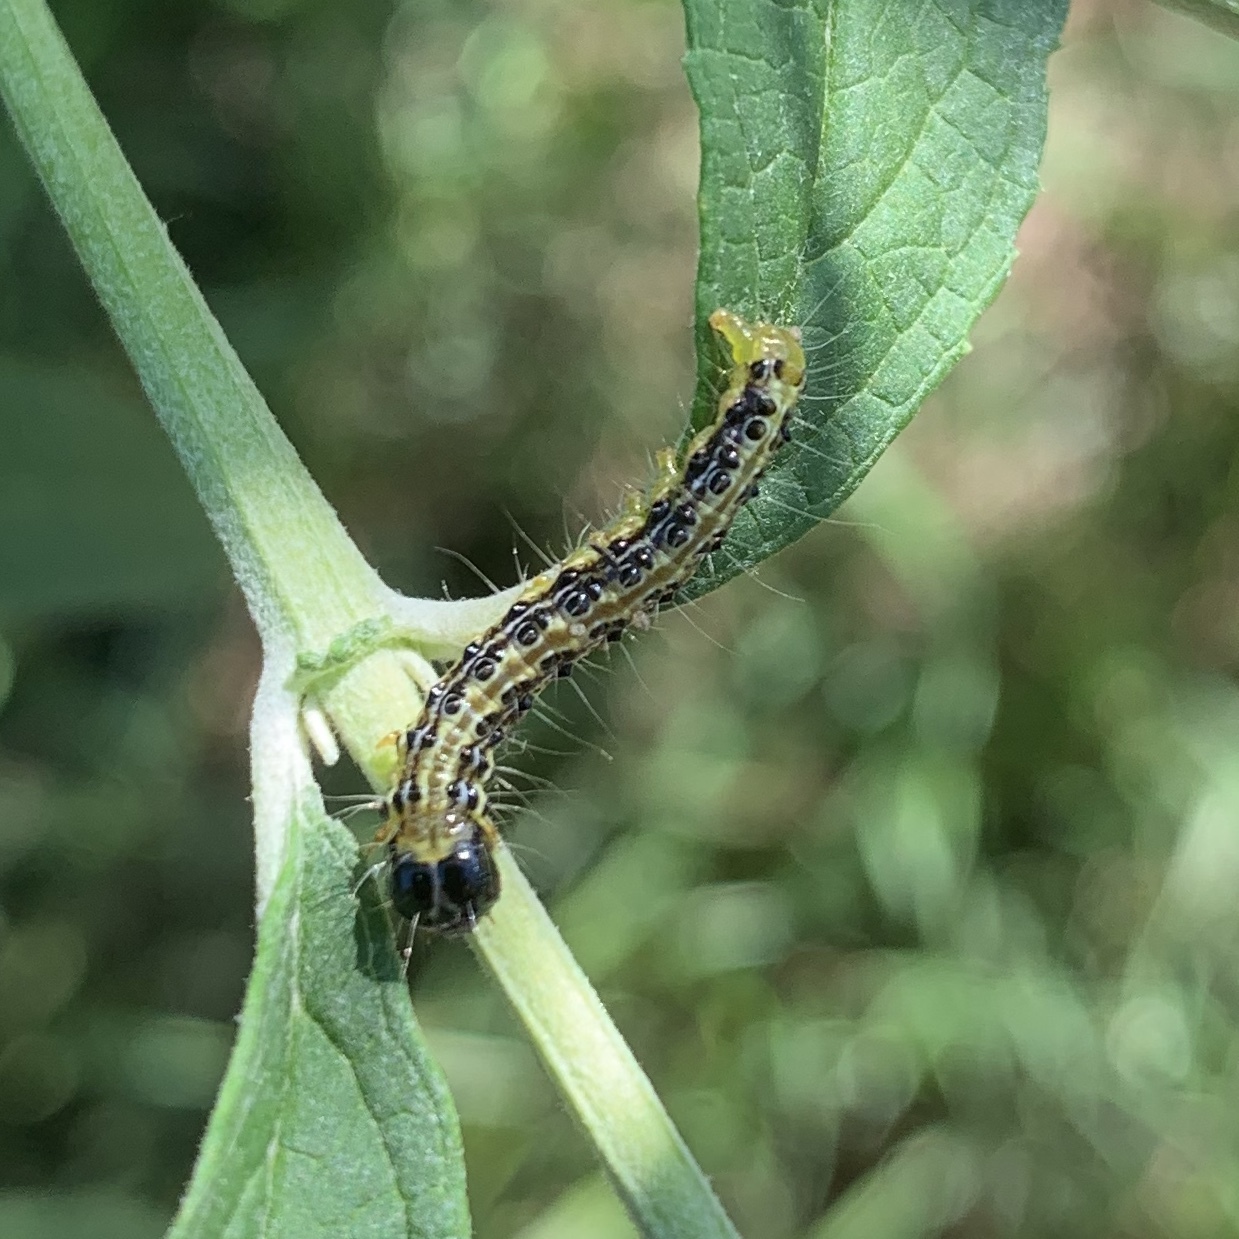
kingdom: Animalia
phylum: Arthropoda
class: Insecta
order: Lepidoptera
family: Crambidae
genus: Cydalima
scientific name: Cydalima perspectalis
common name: Box tree moth
